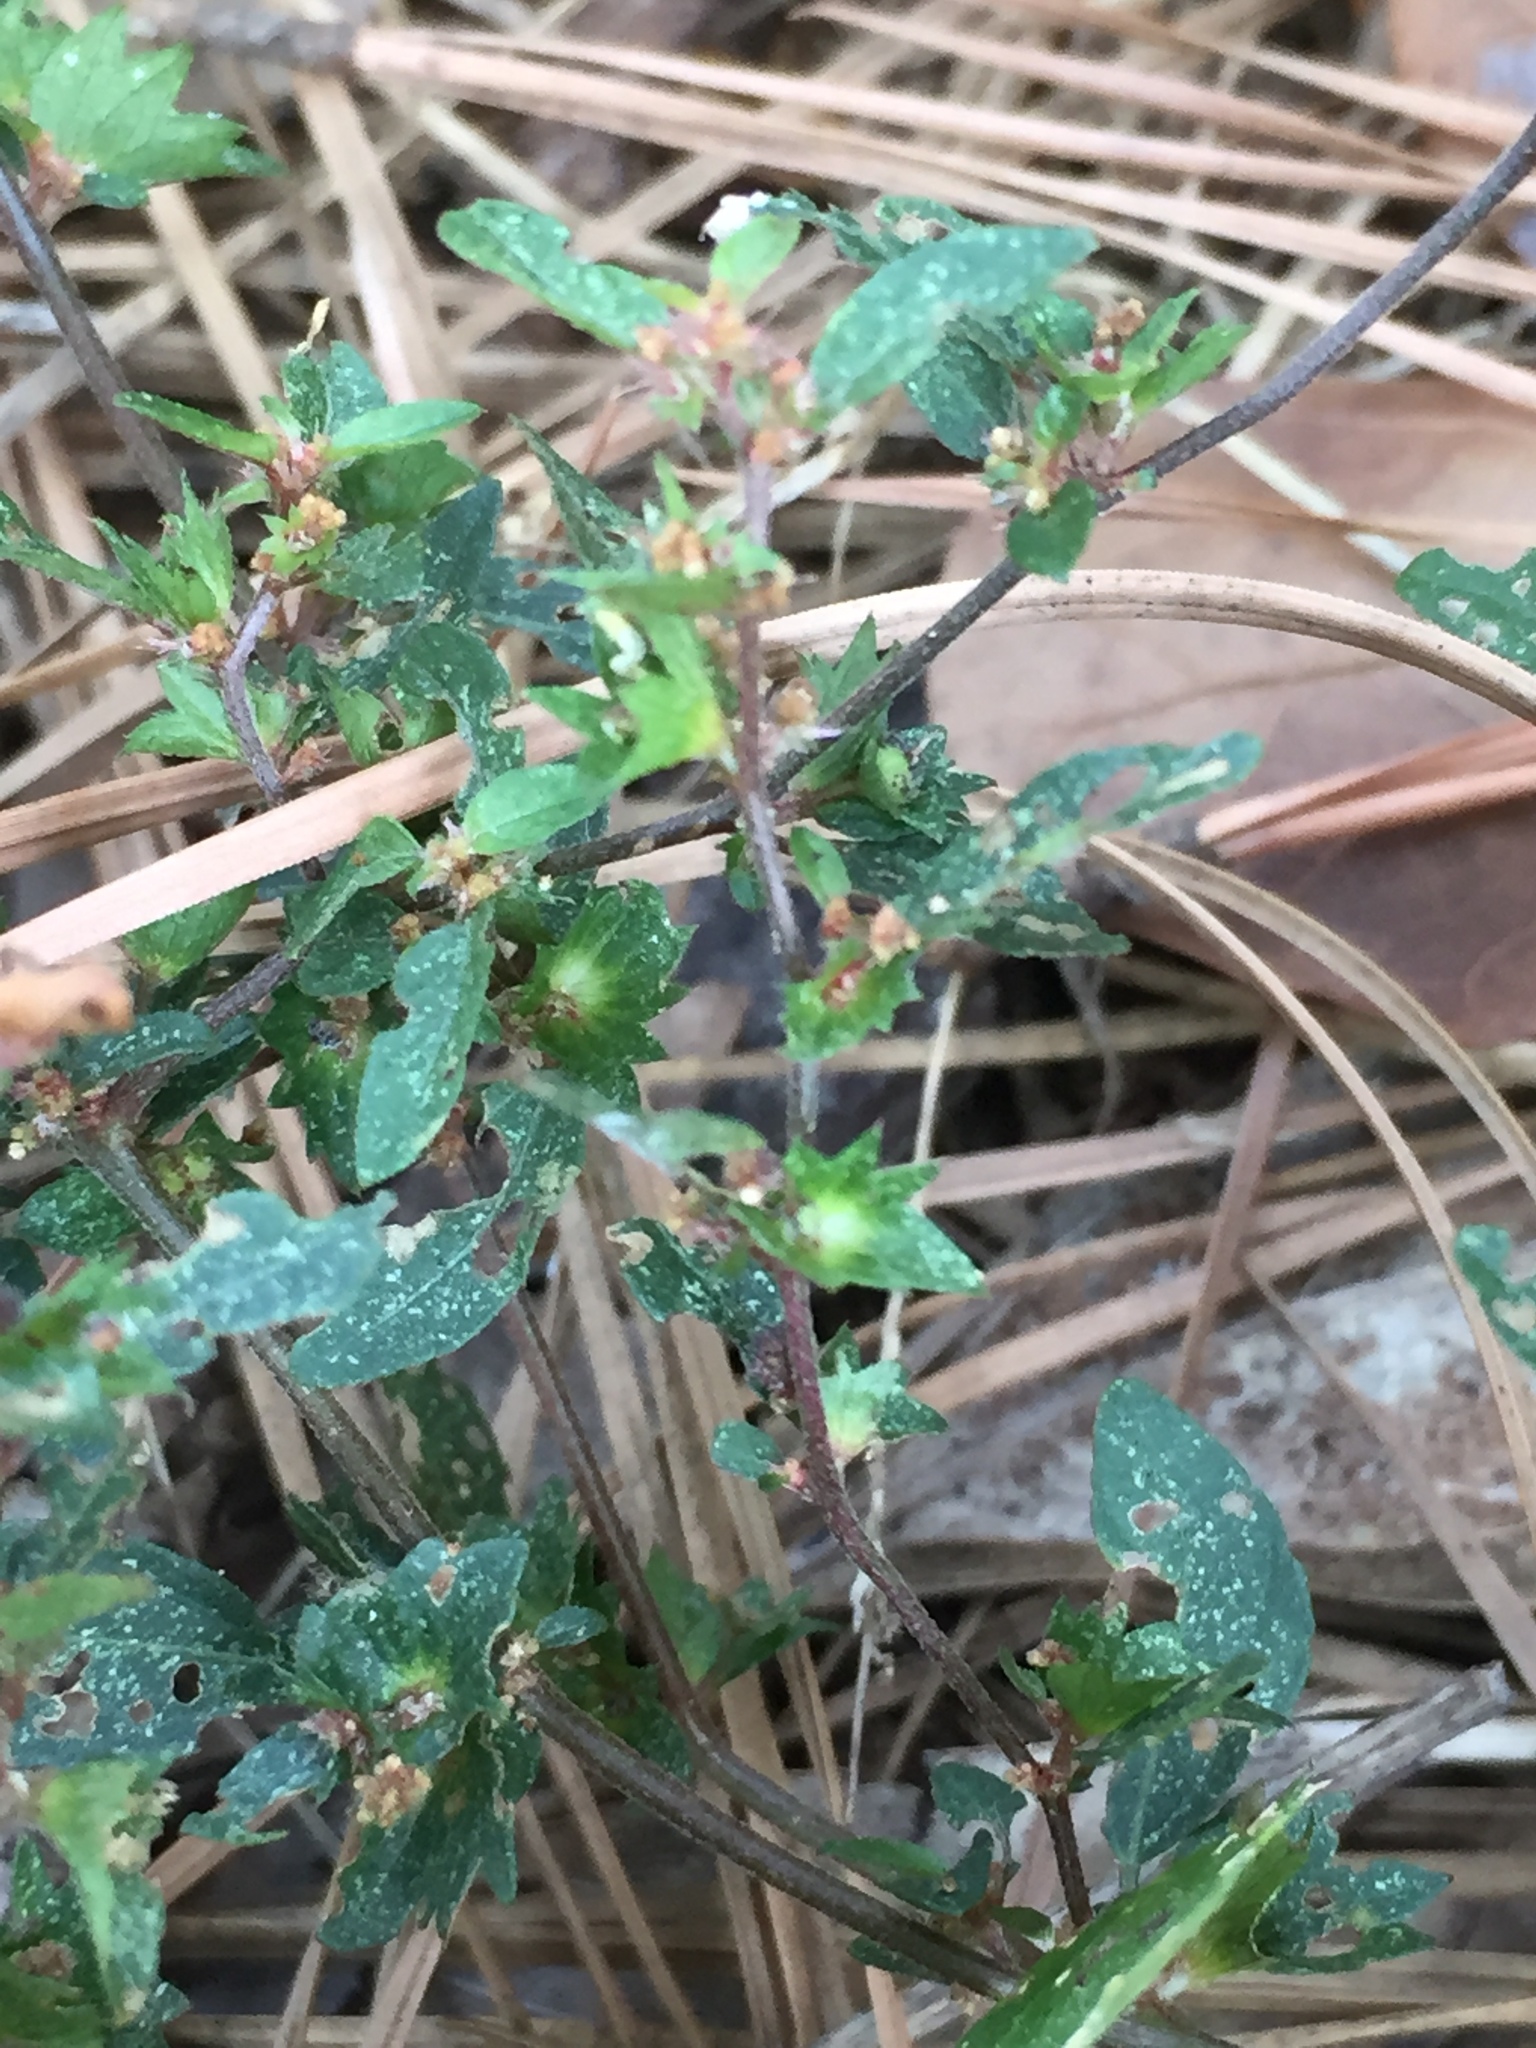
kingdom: Plantae
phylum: Tracheophyta
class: Magnoliopsida
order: Malpighiales
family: Euphorbiaceae
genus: Acalypha
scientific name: Acalypha rhomboidea
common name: Rhombic copperleaf
